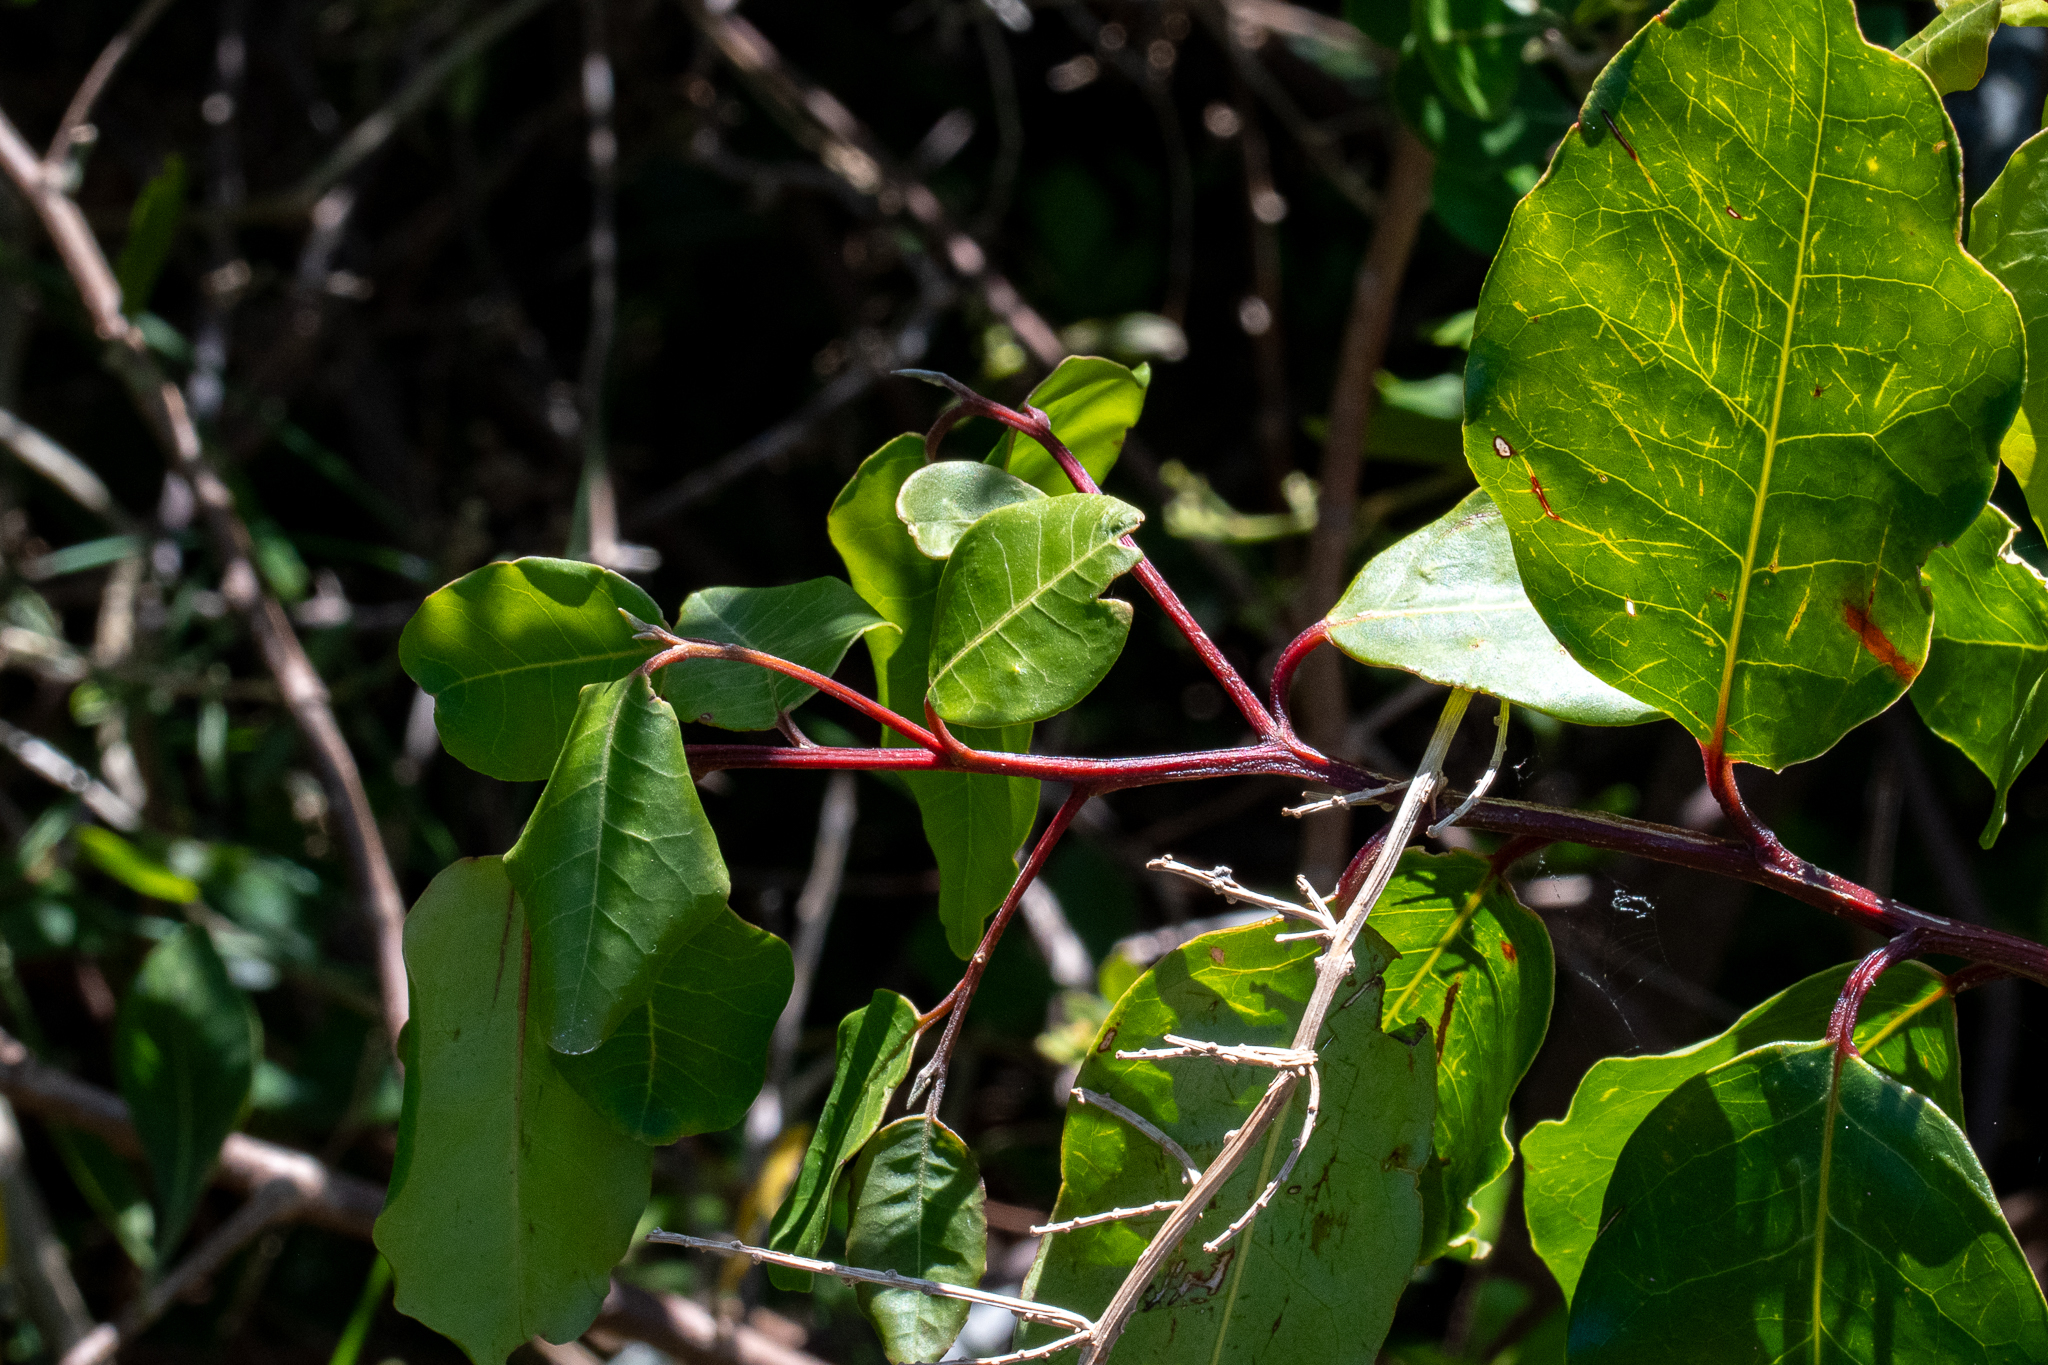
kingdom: Plantae
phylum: Tracheophyta
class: Magnoliopsida
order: Rosales
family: Rosaceae
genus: Prunus
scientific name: Prunus africana
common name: African cherry
